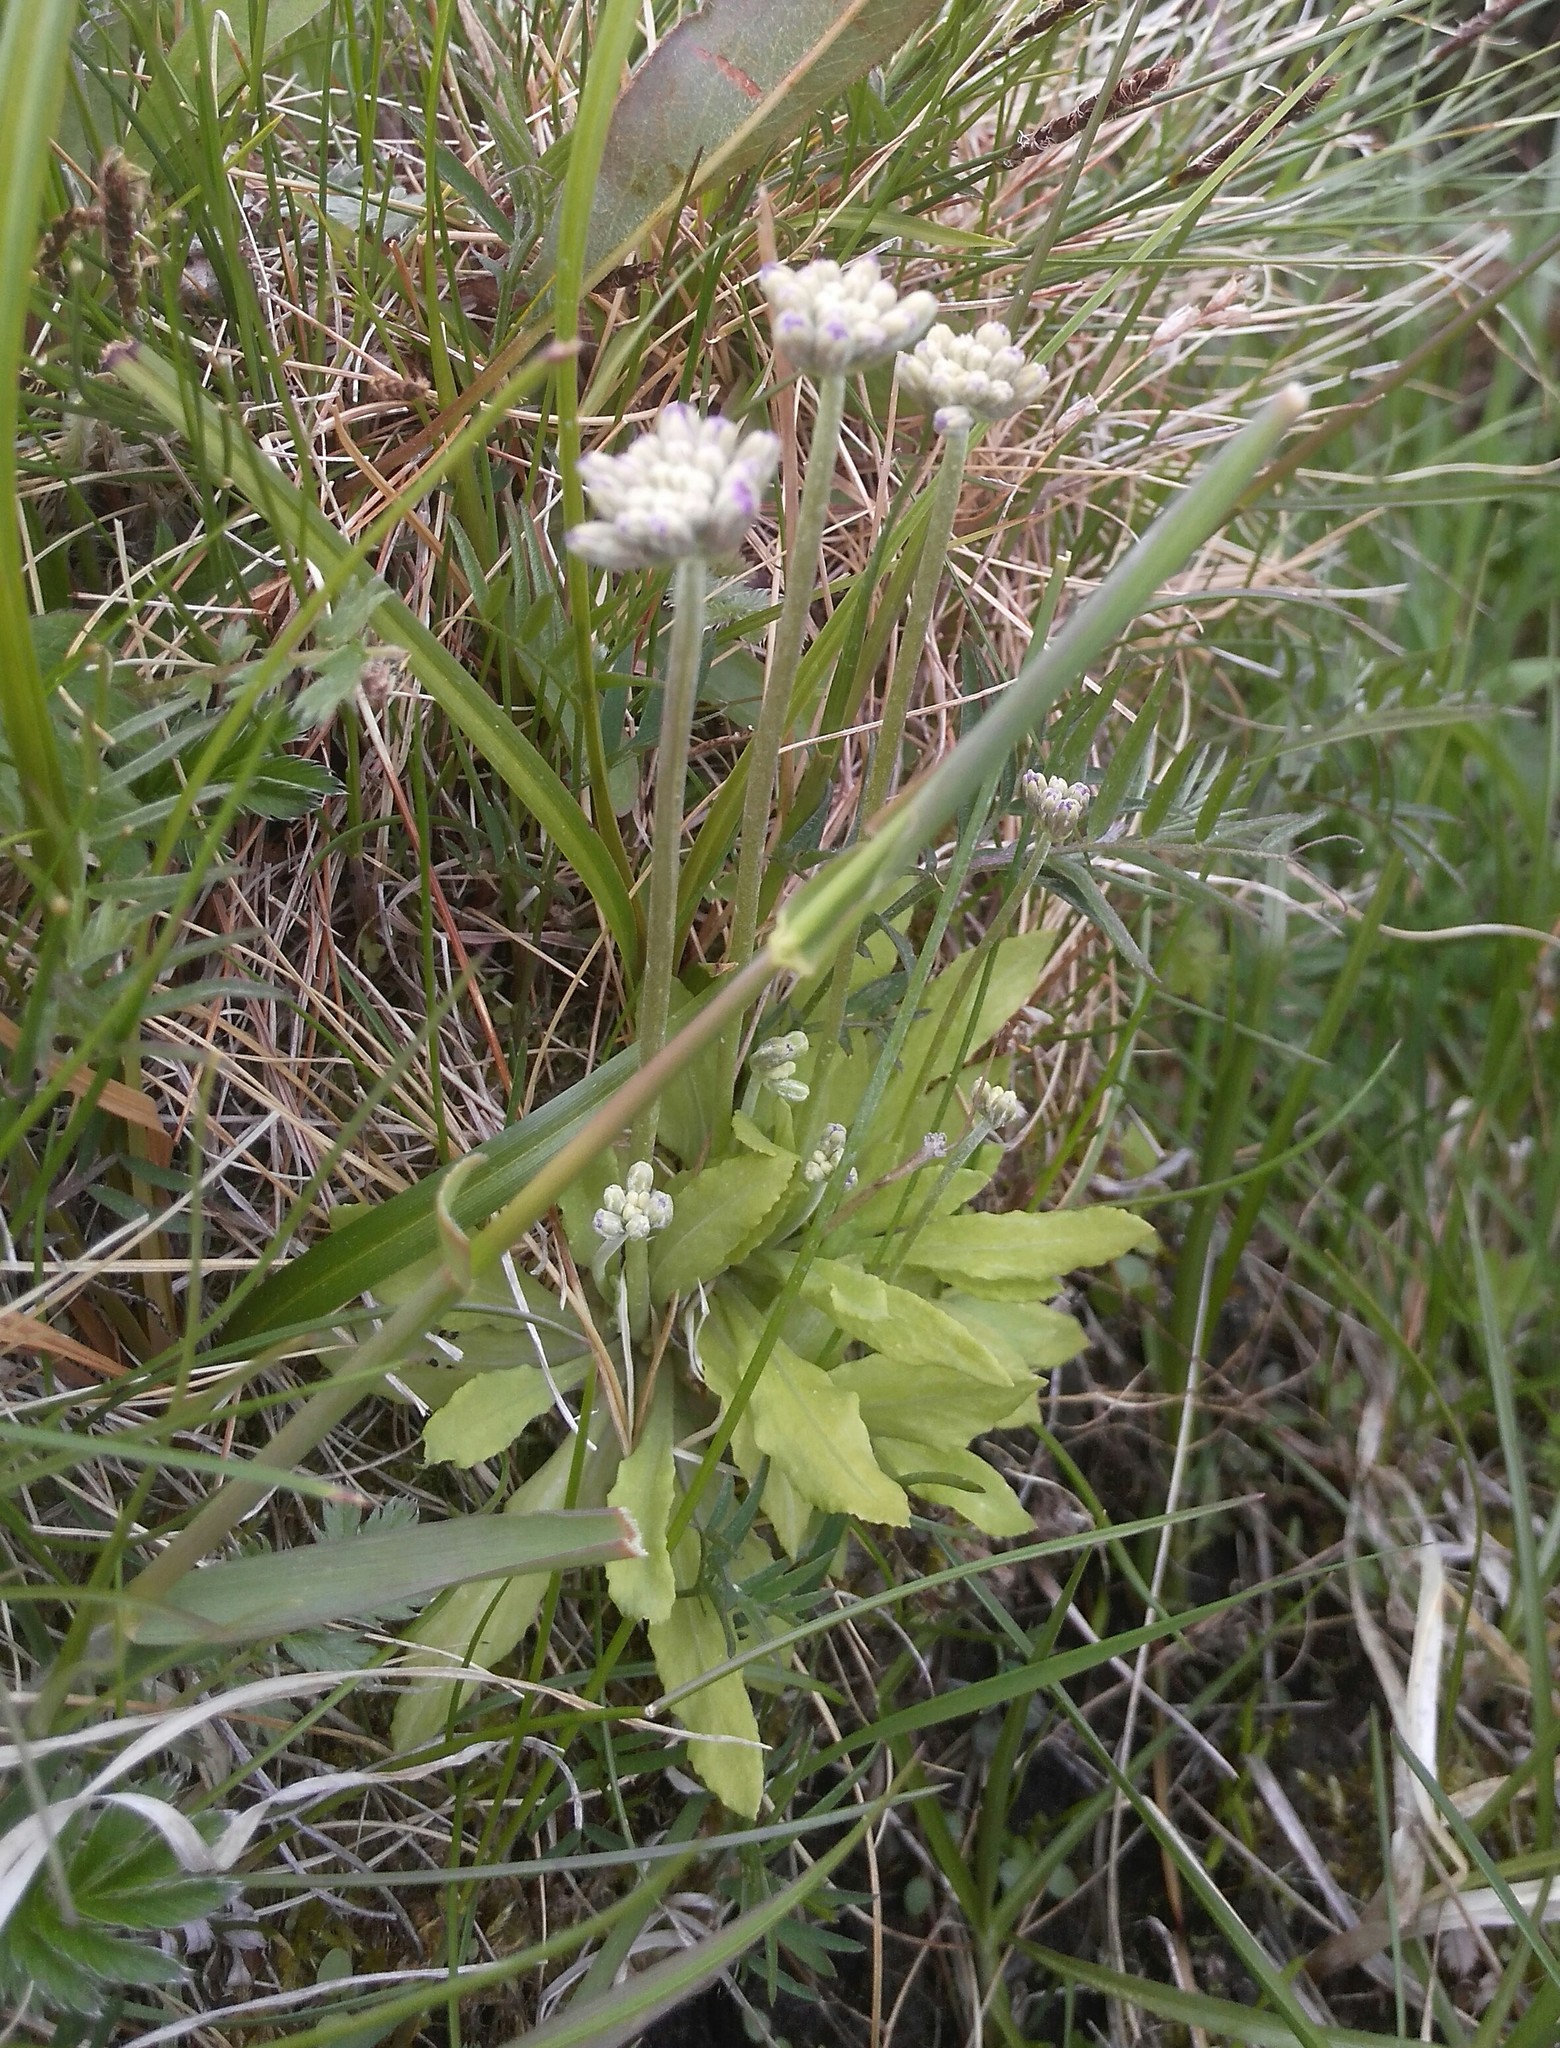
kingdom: Plantae
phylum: Tracheophyta
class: Magnoliopsida
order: Ericales
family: Primulaceae
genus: Primula
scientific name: Primula farinosa
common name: Bird's-eye primrose
